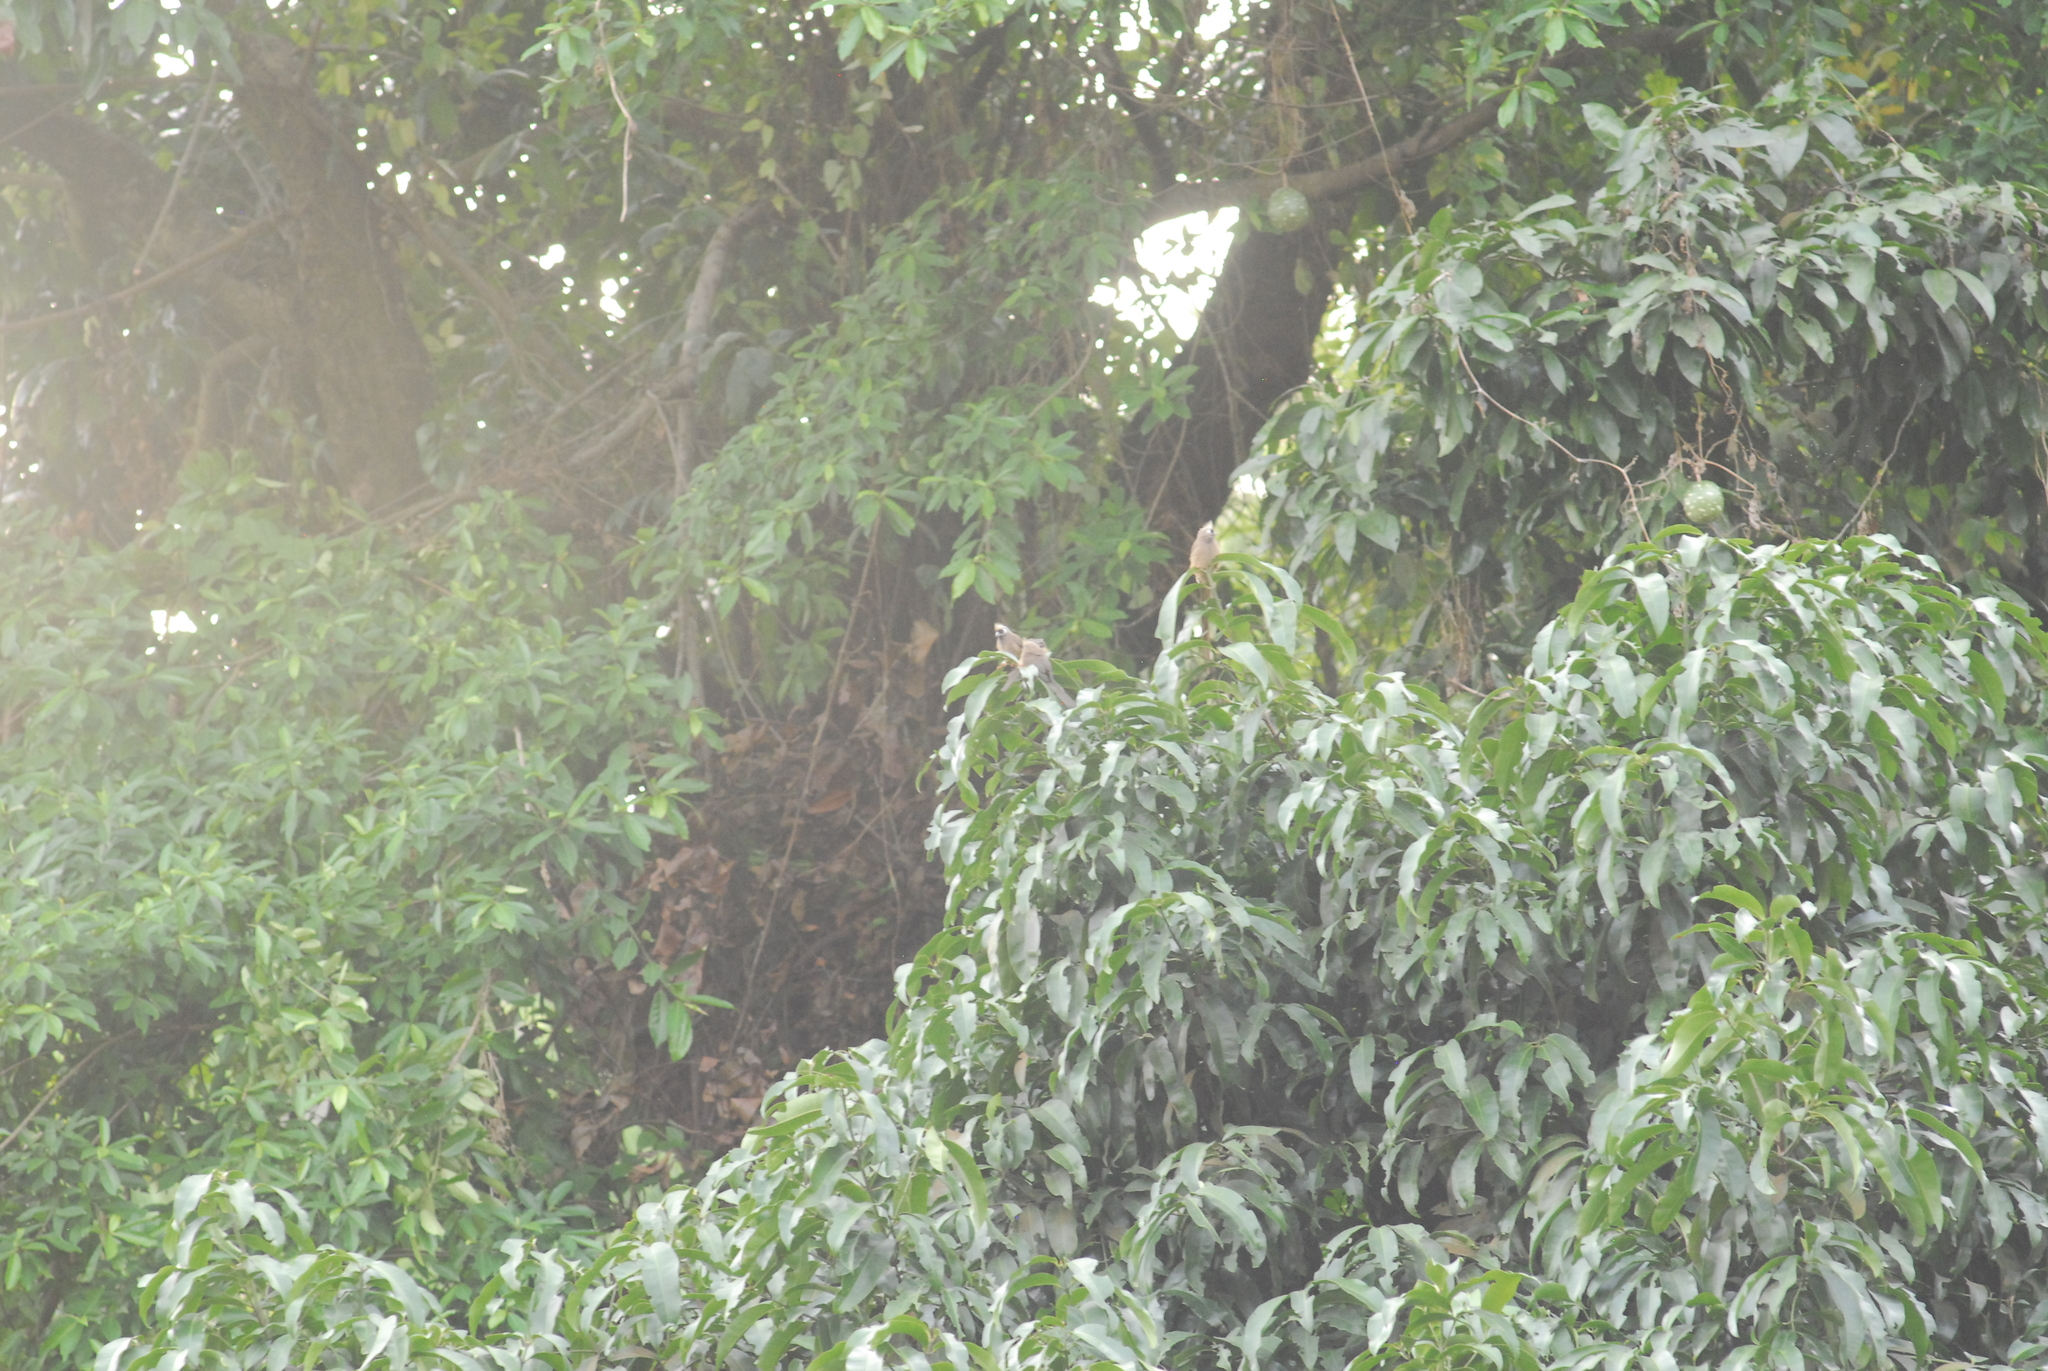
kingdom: Animalia
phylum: Chordata
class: Aves
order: Coliiformes
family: Coliidae
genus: Colius
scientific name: Colius striatus
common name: Speckled mousebird
